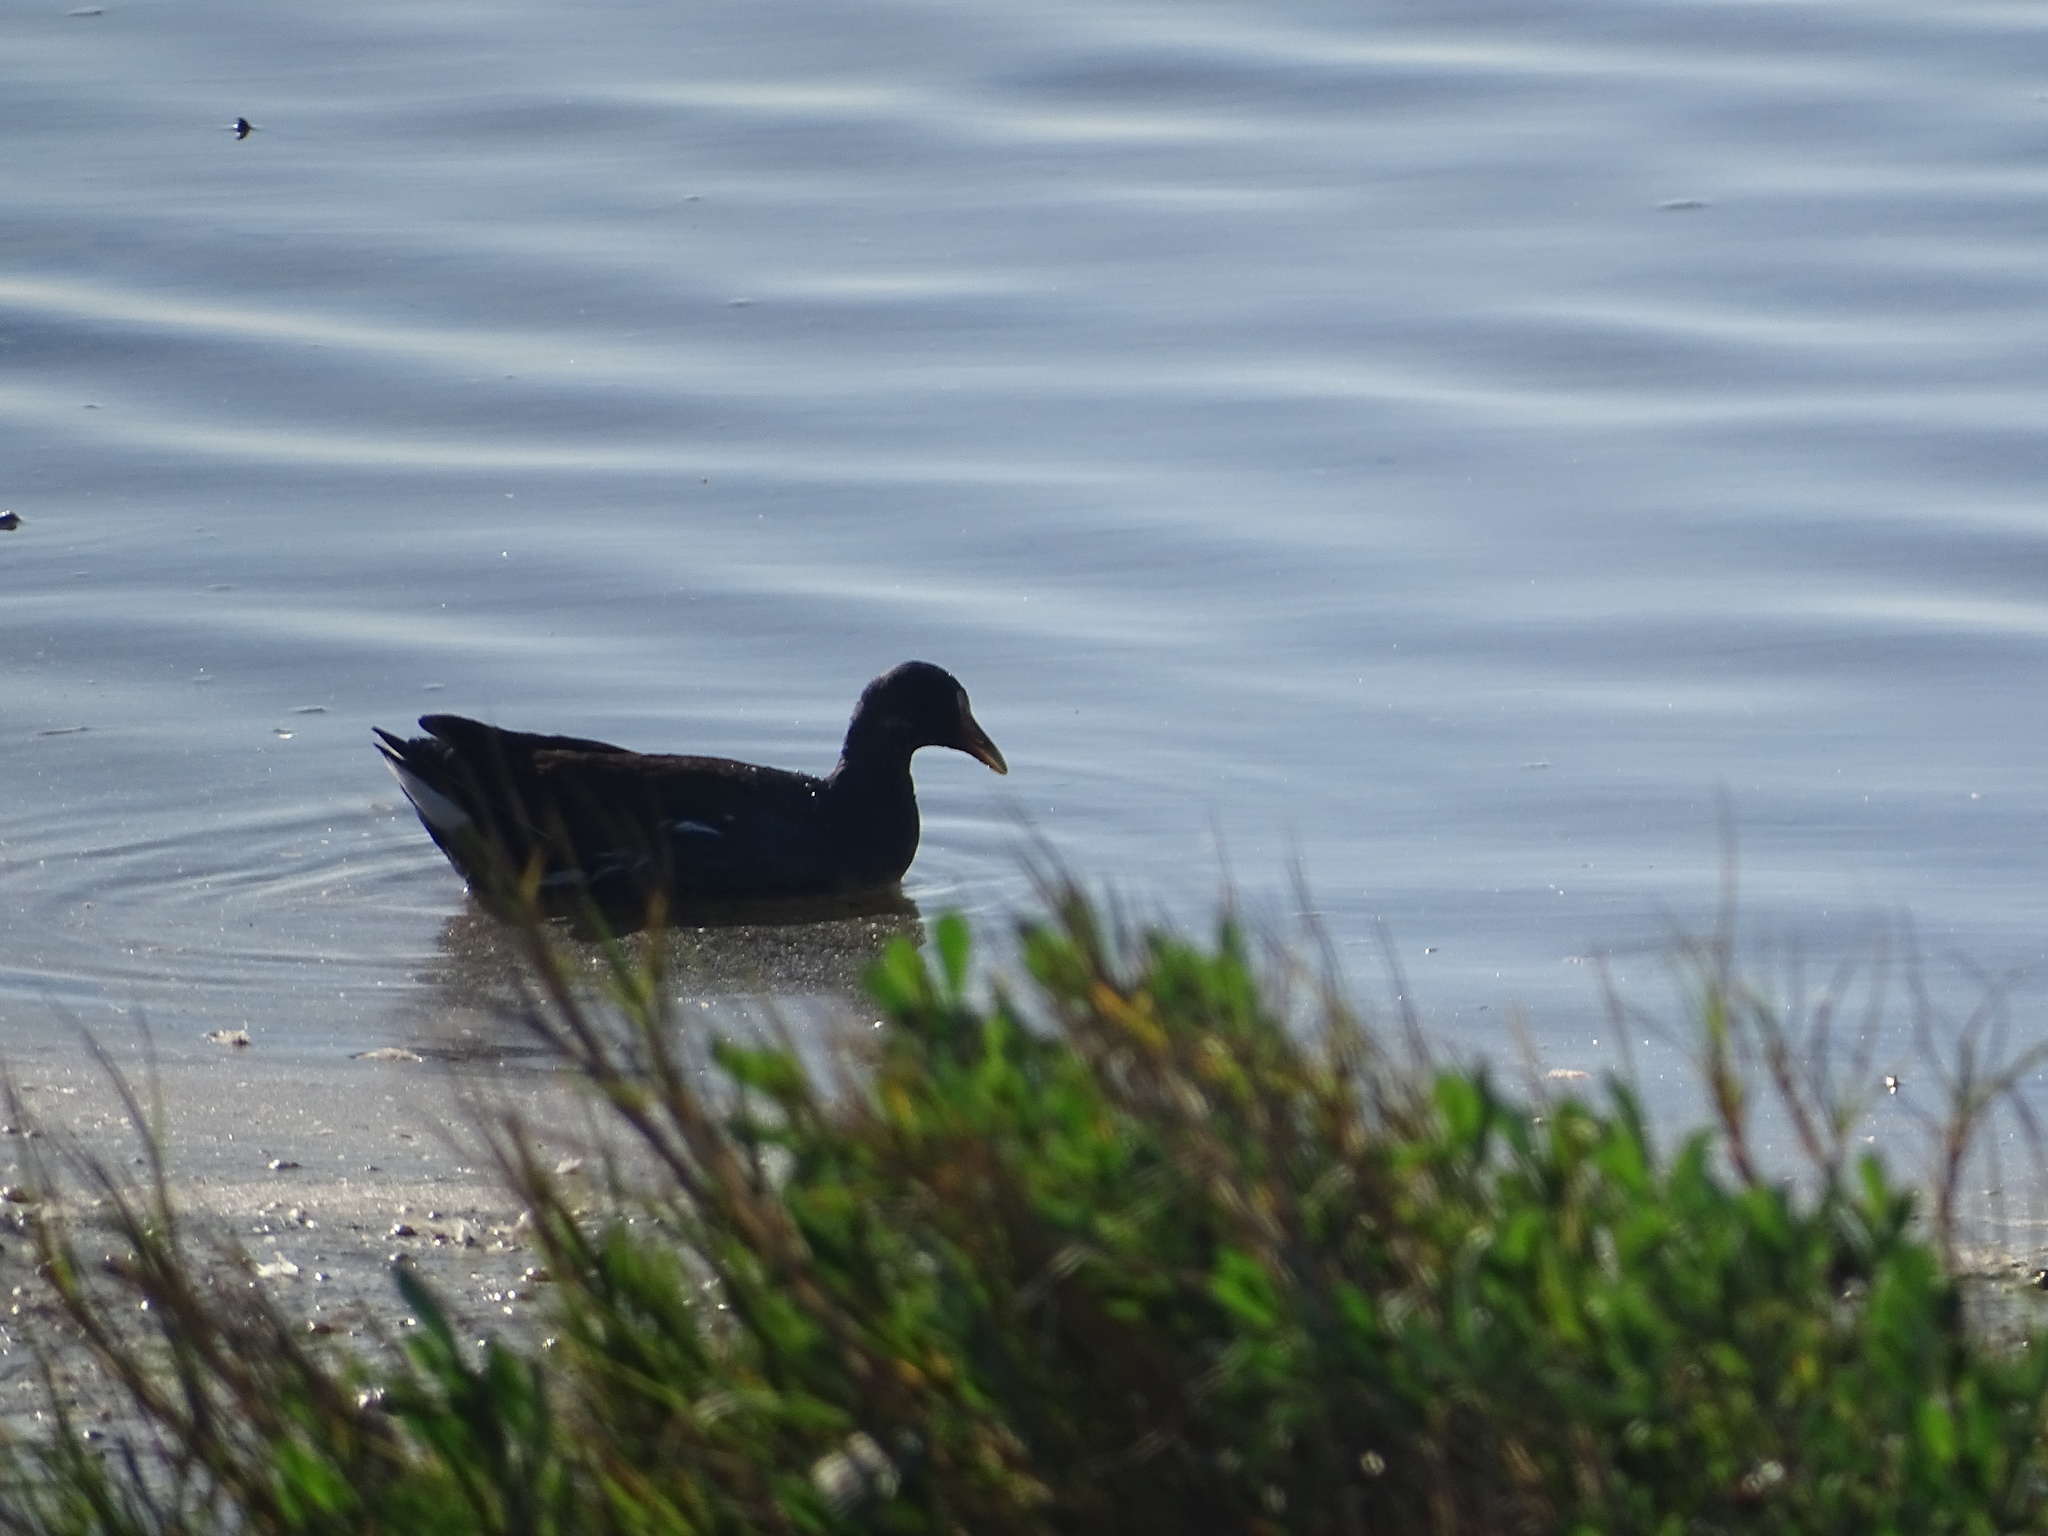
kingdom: Animalia
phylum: Chordata
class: Aves
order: Gruiformes
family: Rallidae
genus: Gallinula
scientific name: Gallinula chloropus
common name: Common moorhen
